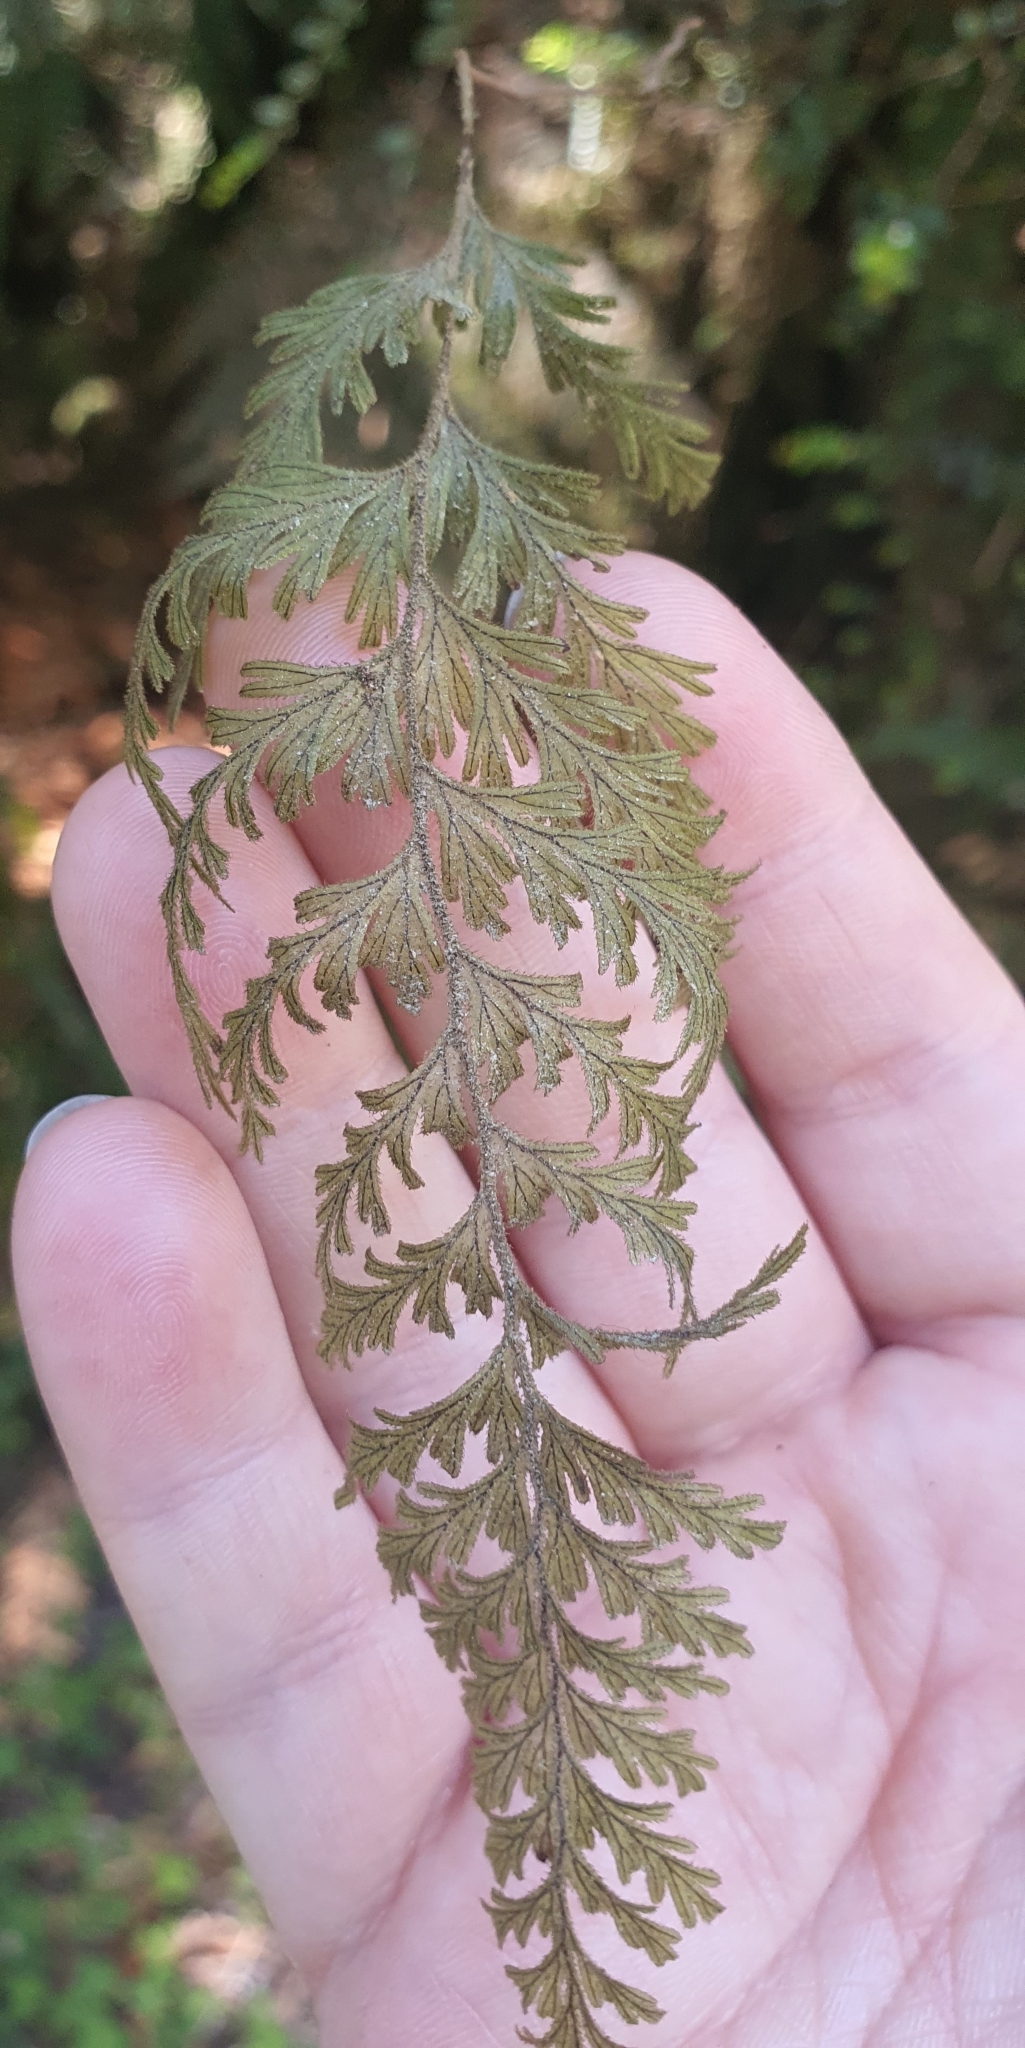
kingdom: Plantae
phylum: Tracheophyta
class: Polypodiopsida
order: Hymenophyllales
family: Hymenophyllaceae
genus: Hymenophyllum
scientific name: Hymenophyllum frankliniae
